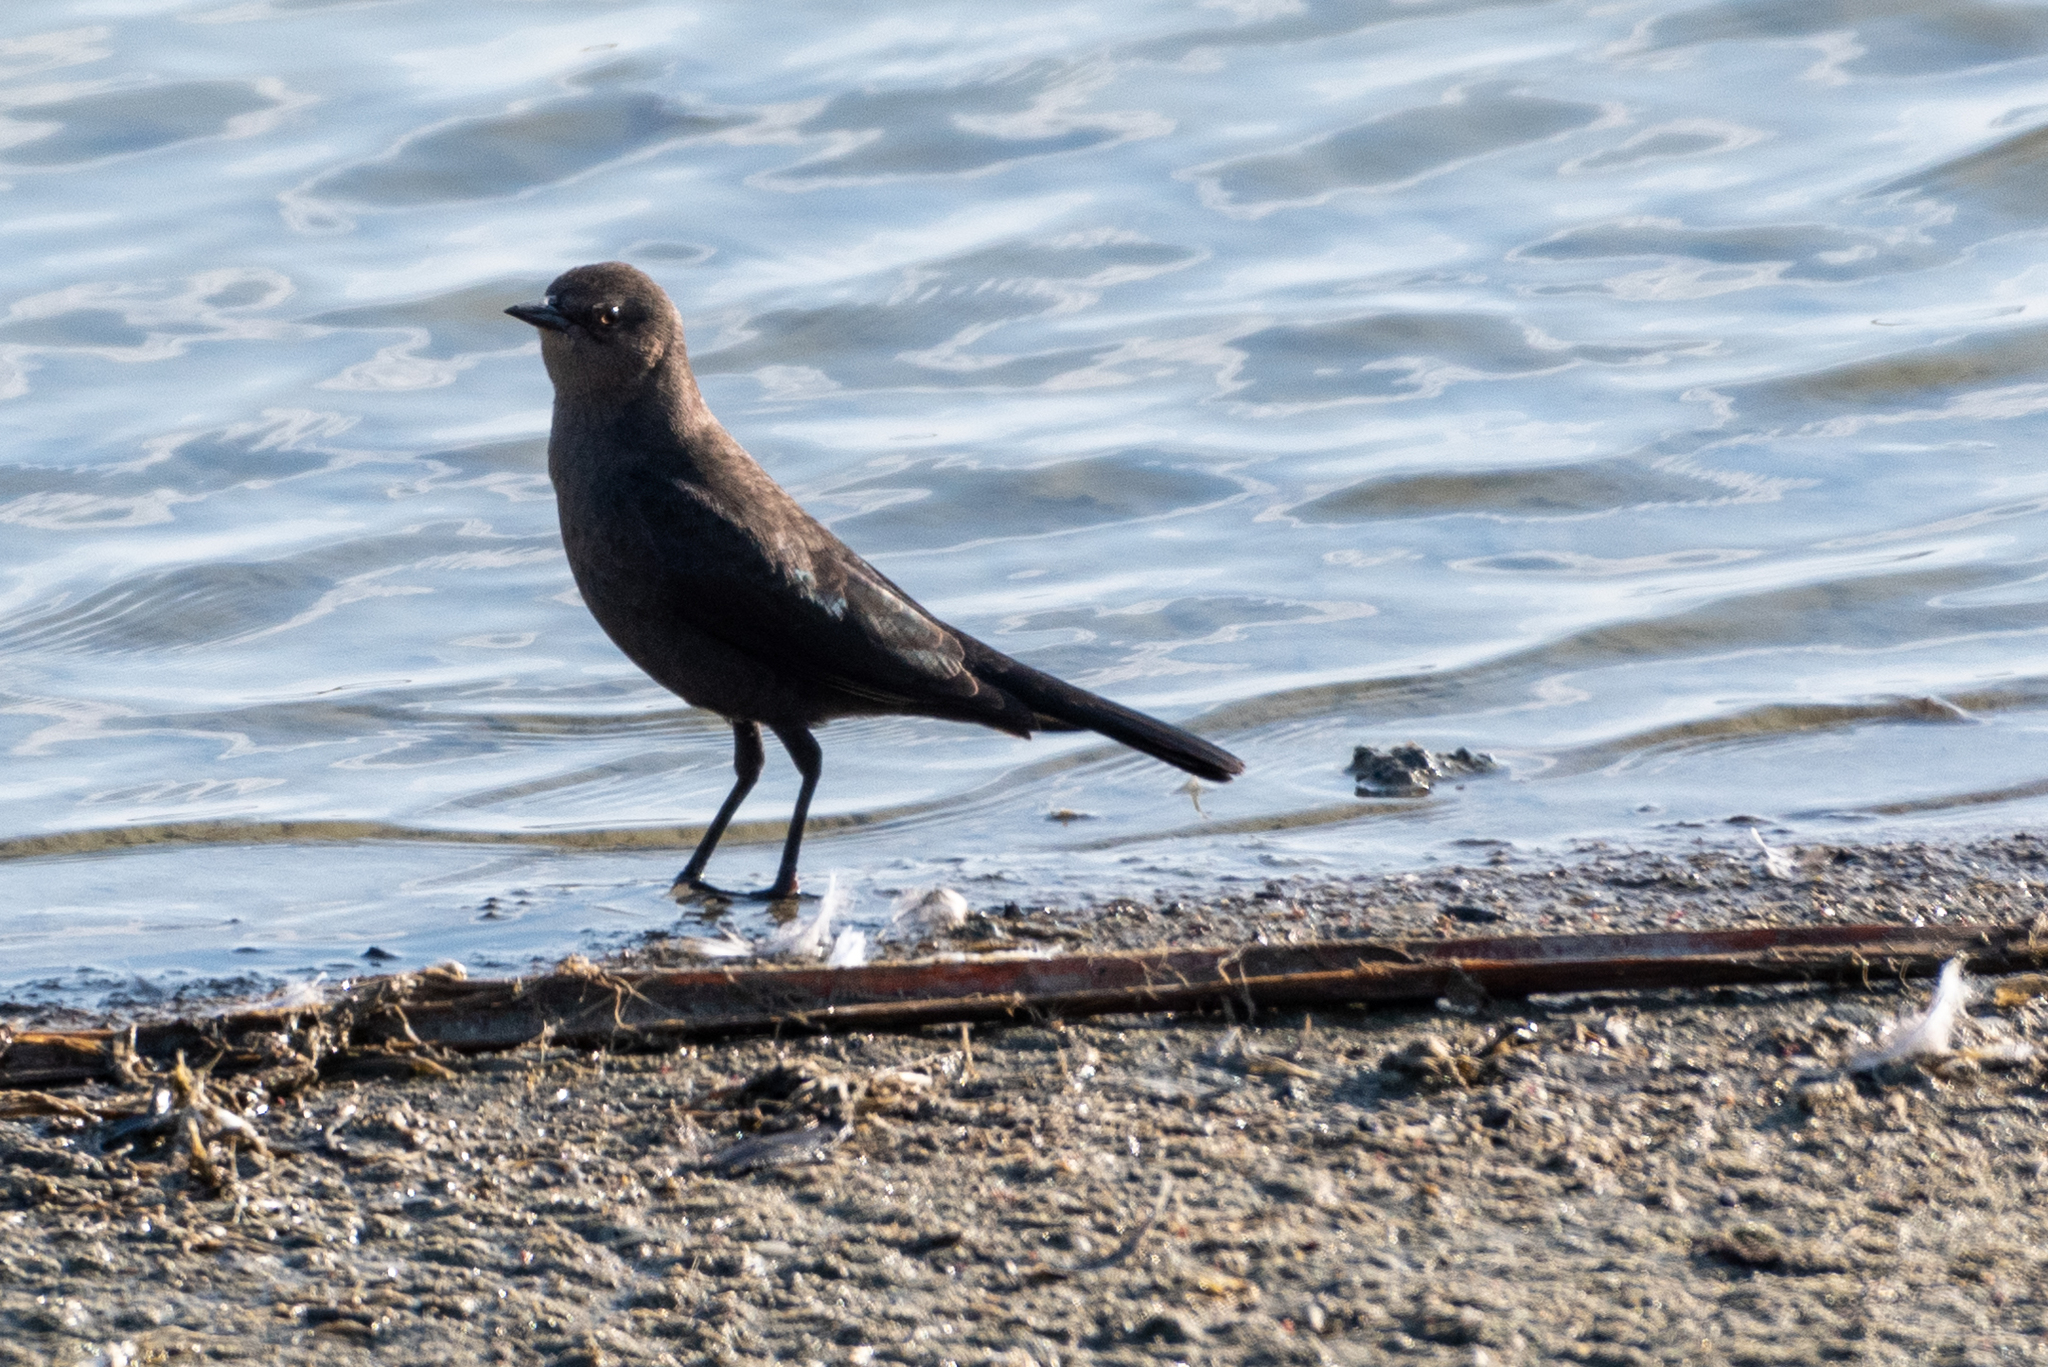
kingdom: Animalia
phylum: Chordata
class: Aves
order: Passeriformes
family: Icteridae
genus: Euphagus
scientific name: Euphagus cyanocephalus
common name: Brewer's blackbird
